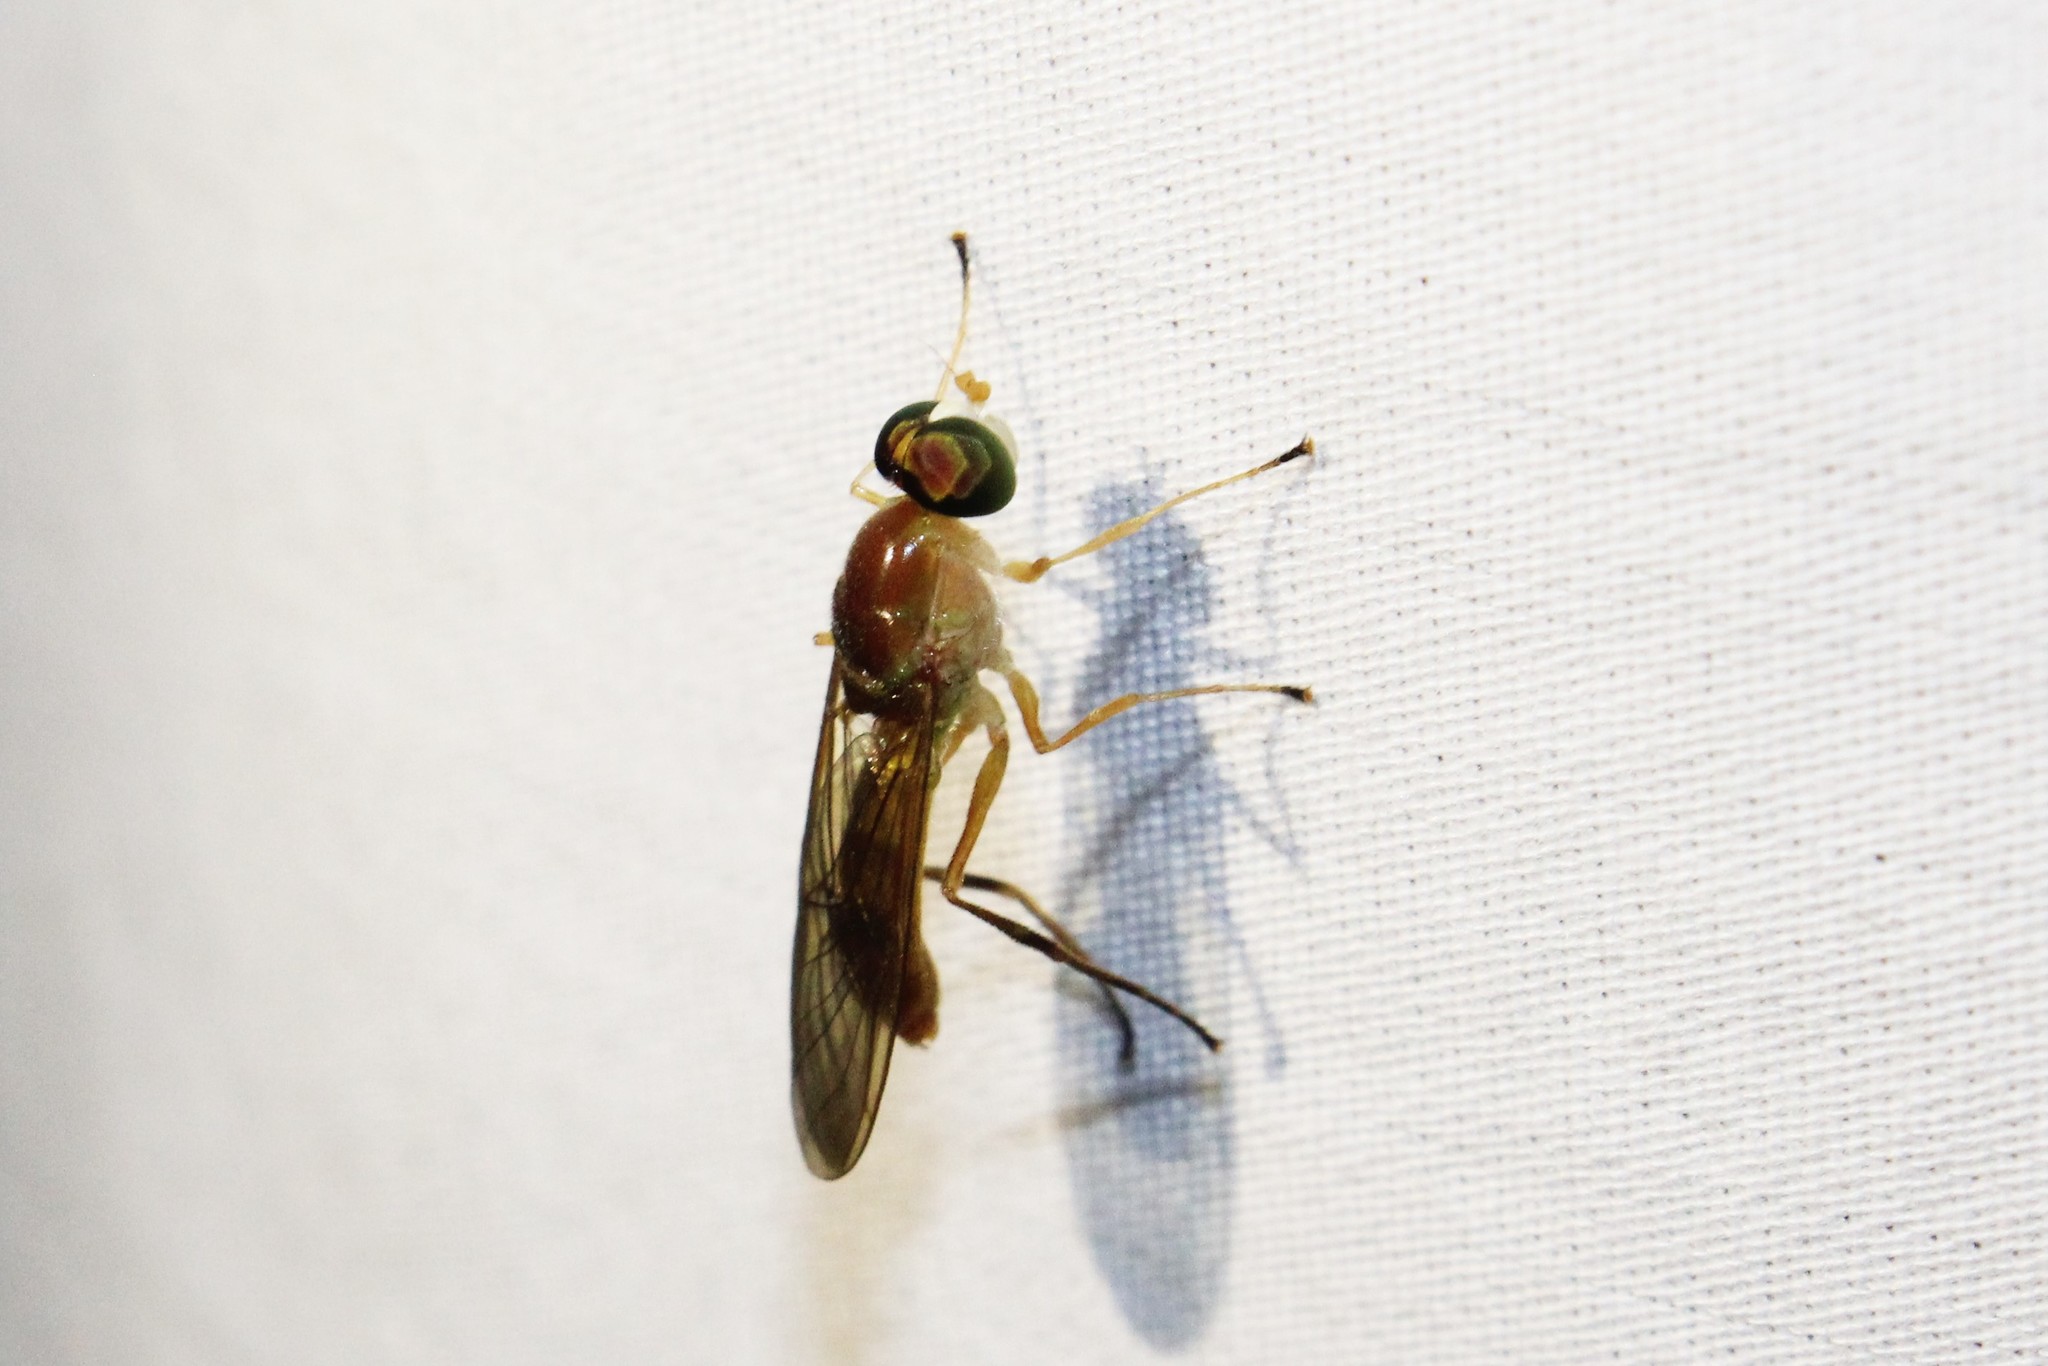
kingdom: Animalia
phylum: Arthropoda
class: Insecta
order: Diptera
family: Stratiomyidae
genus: Ptecticus
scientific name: Ptecticus trivittatus
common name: Compost fly
